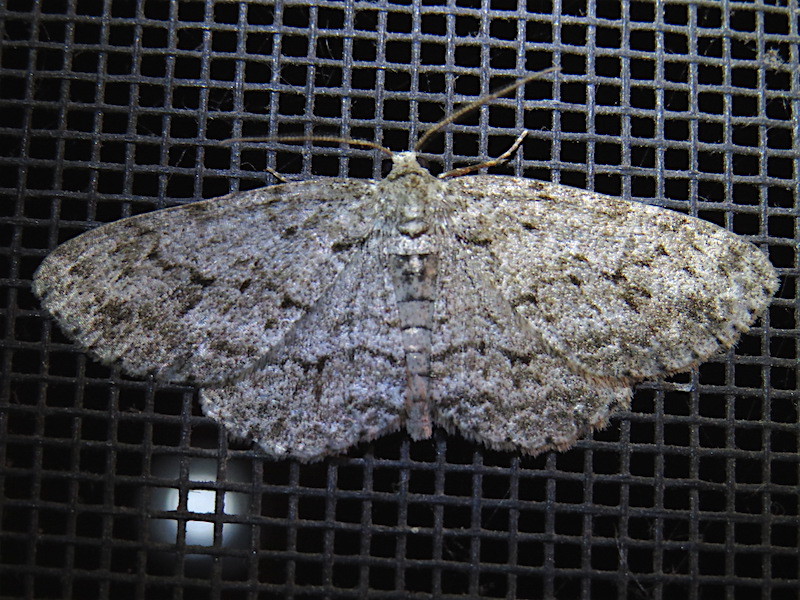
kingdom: Animalia
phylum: Arthropoda
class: Insecta
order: Lepidoptera
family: Geometridae
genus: Ectropis
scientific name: Ectropis crepuscularia
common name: Engrailed
